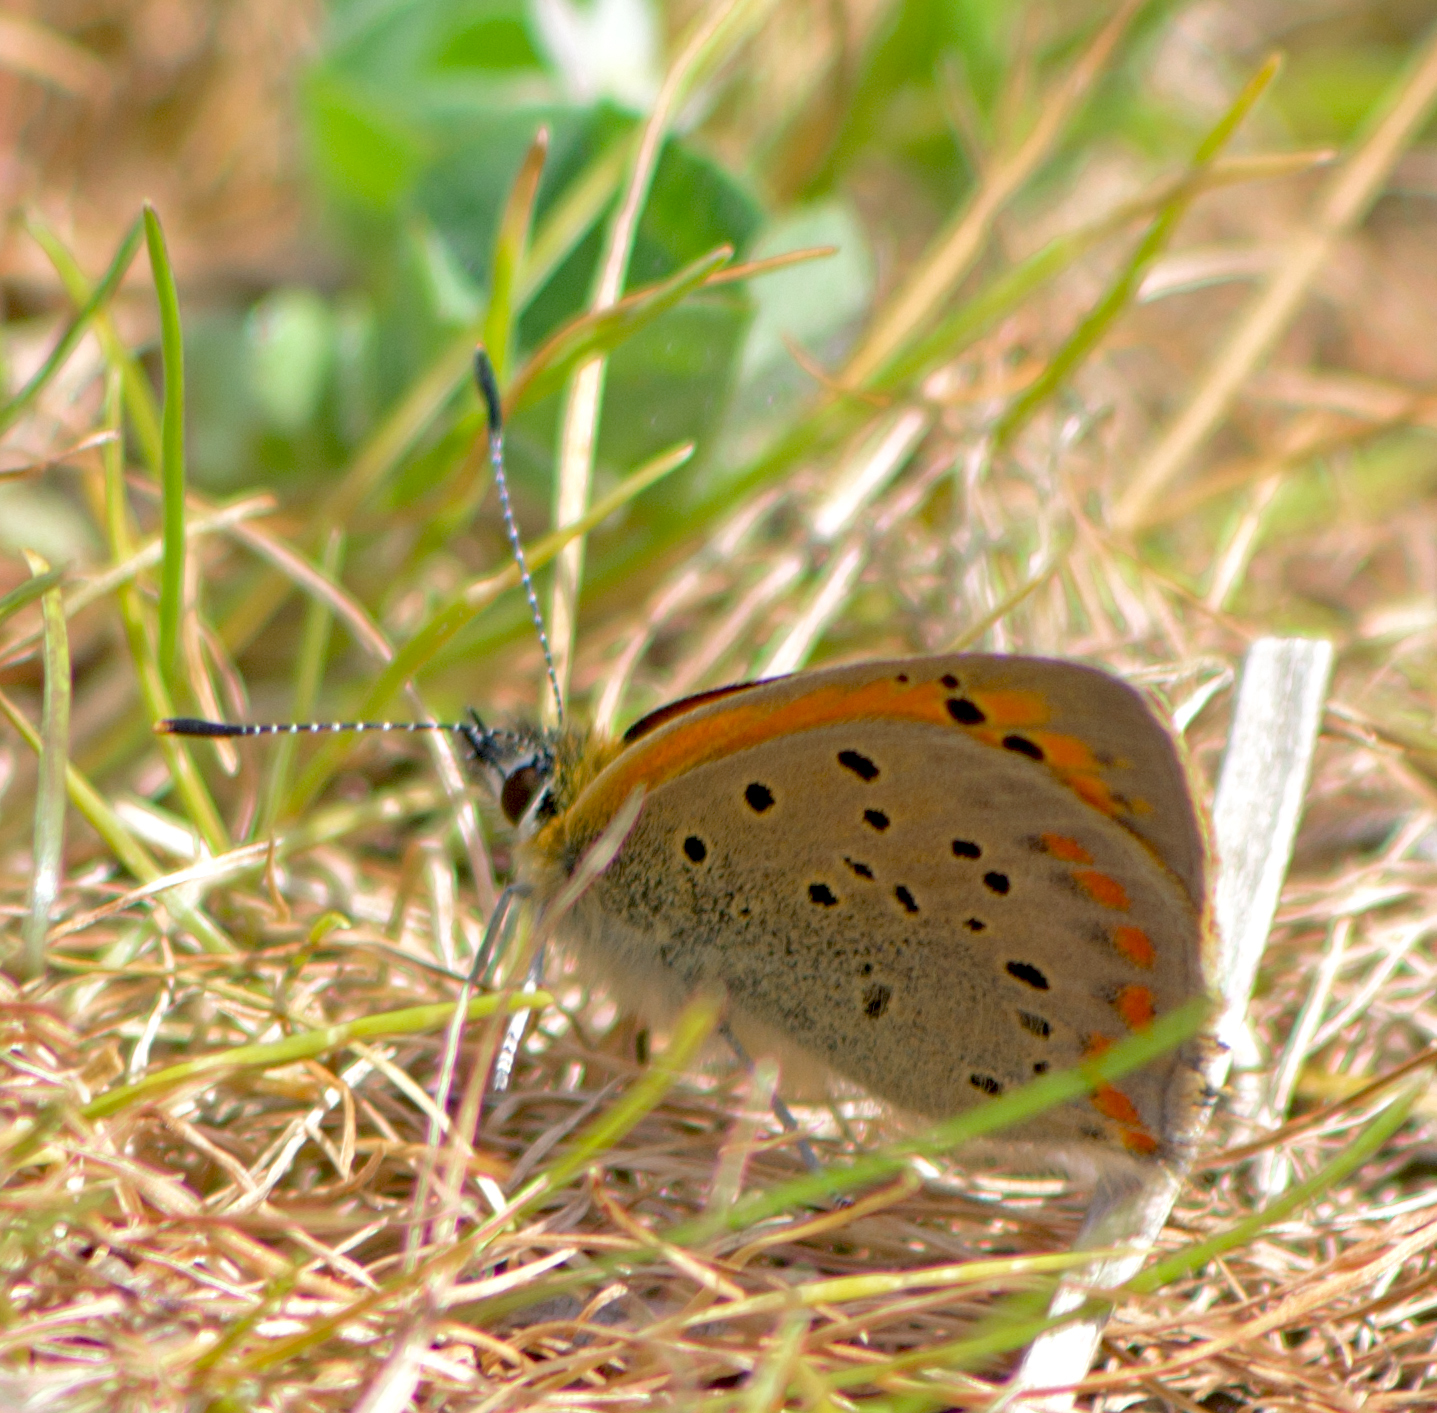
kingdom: Animalia
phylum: Arthropoda
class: Insecta
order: Lepidoptera
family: Lycaenidae
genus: Polyommatus
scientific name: Polyommatus ottomanus
